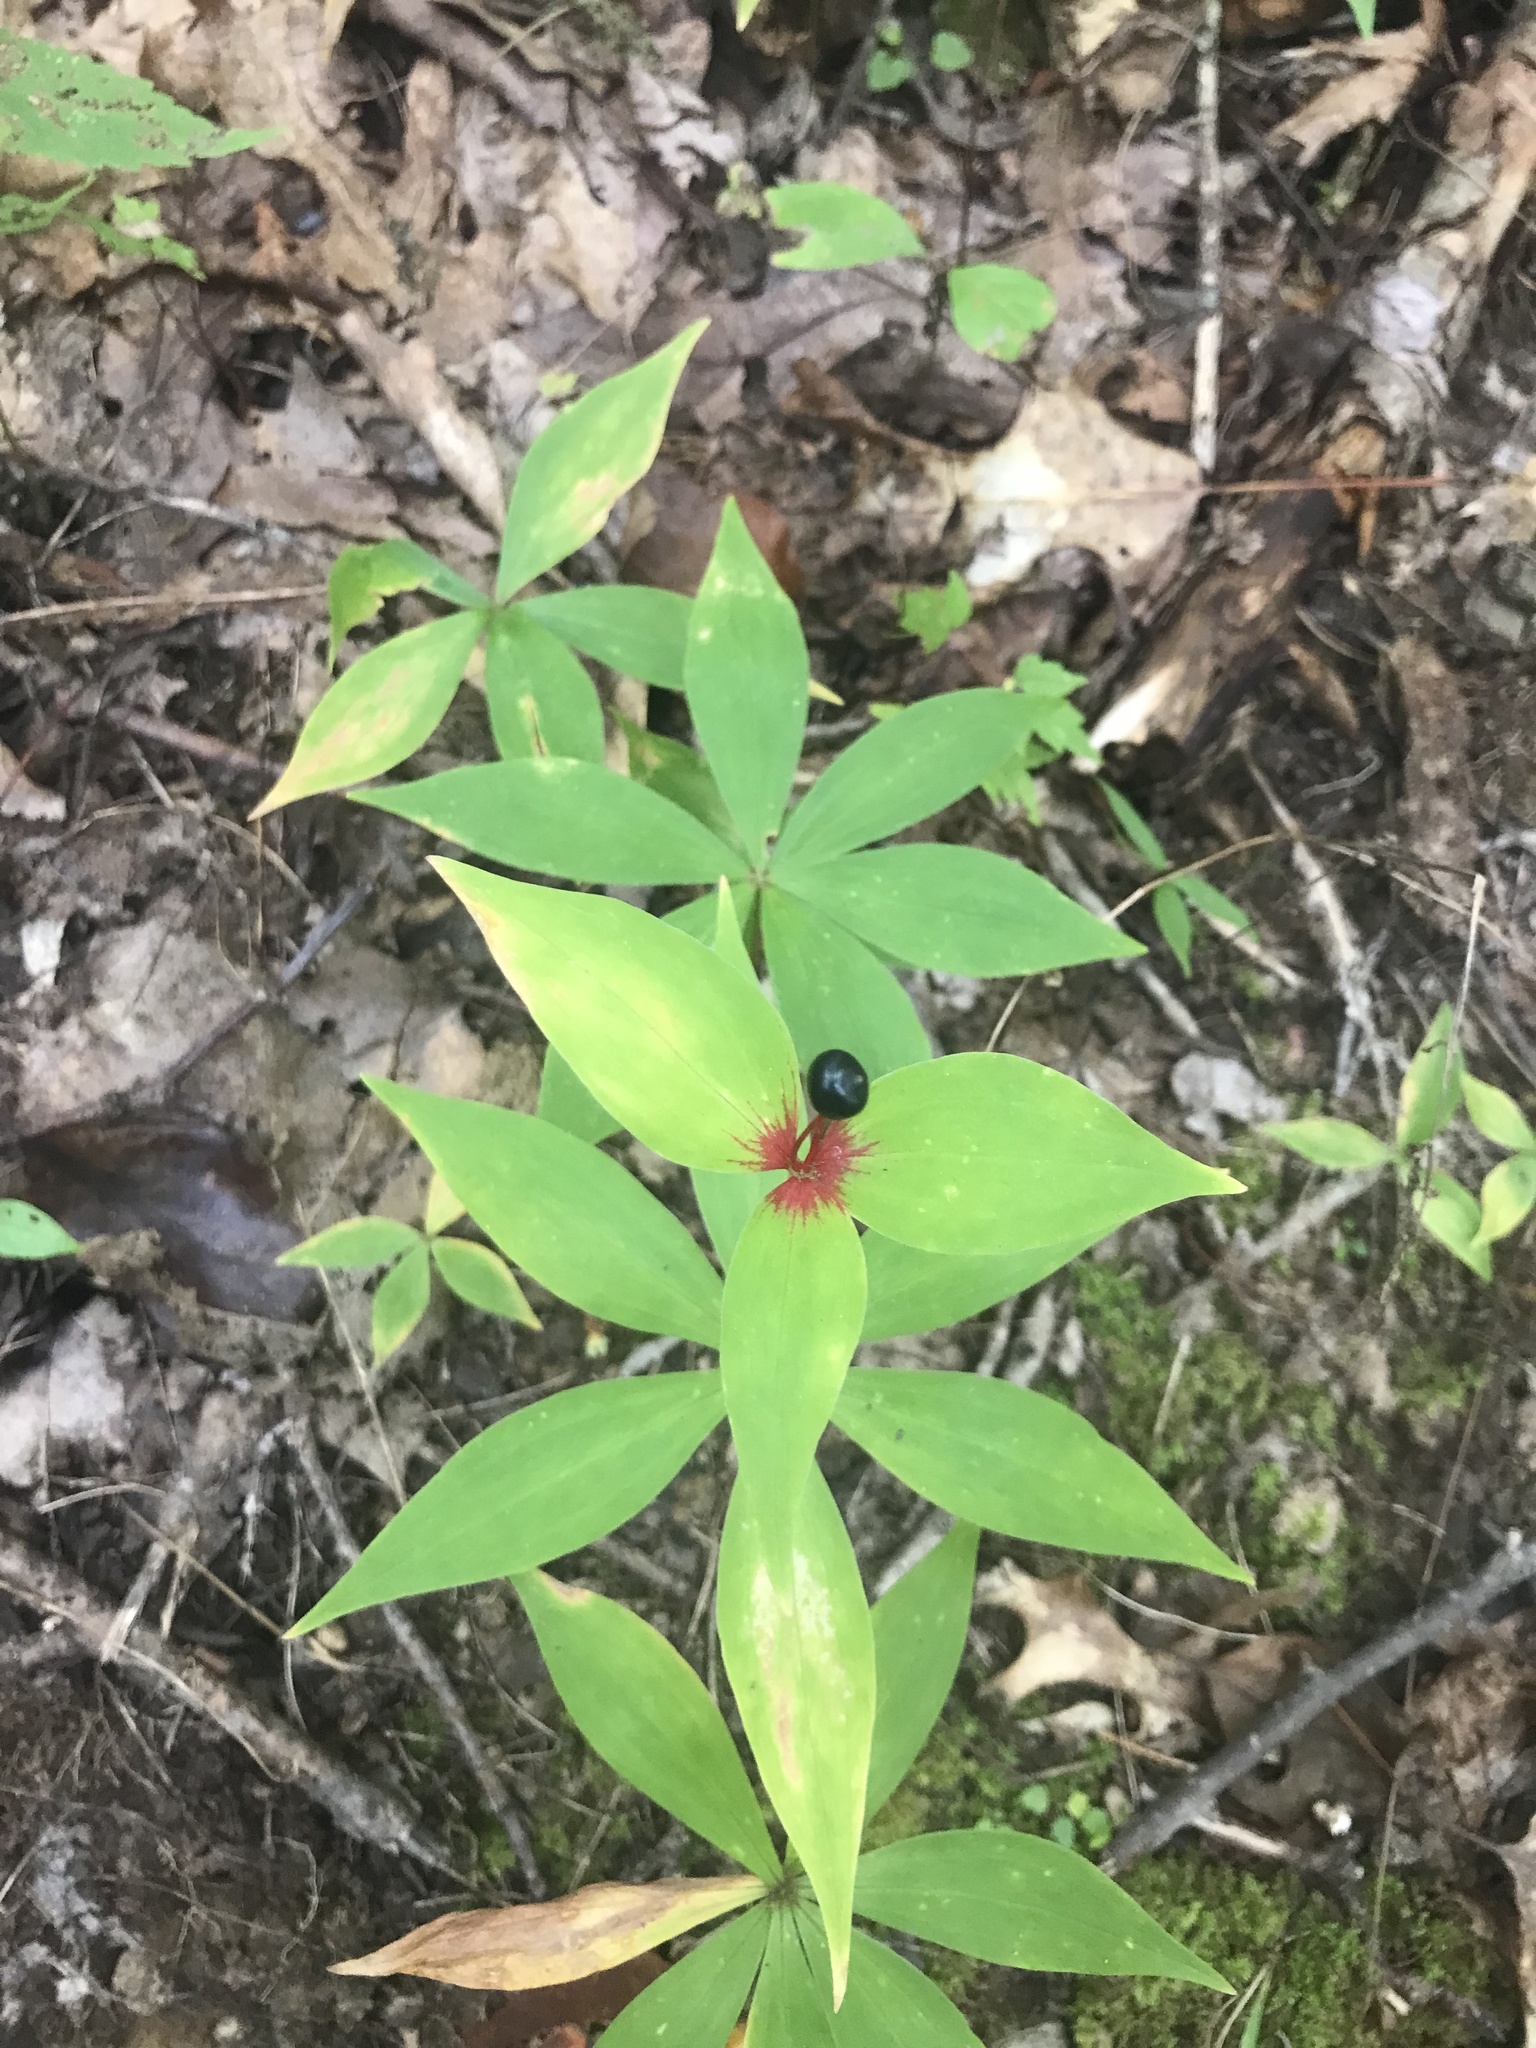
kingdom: Plantae
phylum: Tracheophyta
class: Liliopsida
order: Liliales
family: Liliaceae
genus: Medeola
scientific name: Medeola virginiana
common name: Indian cucumber-root
